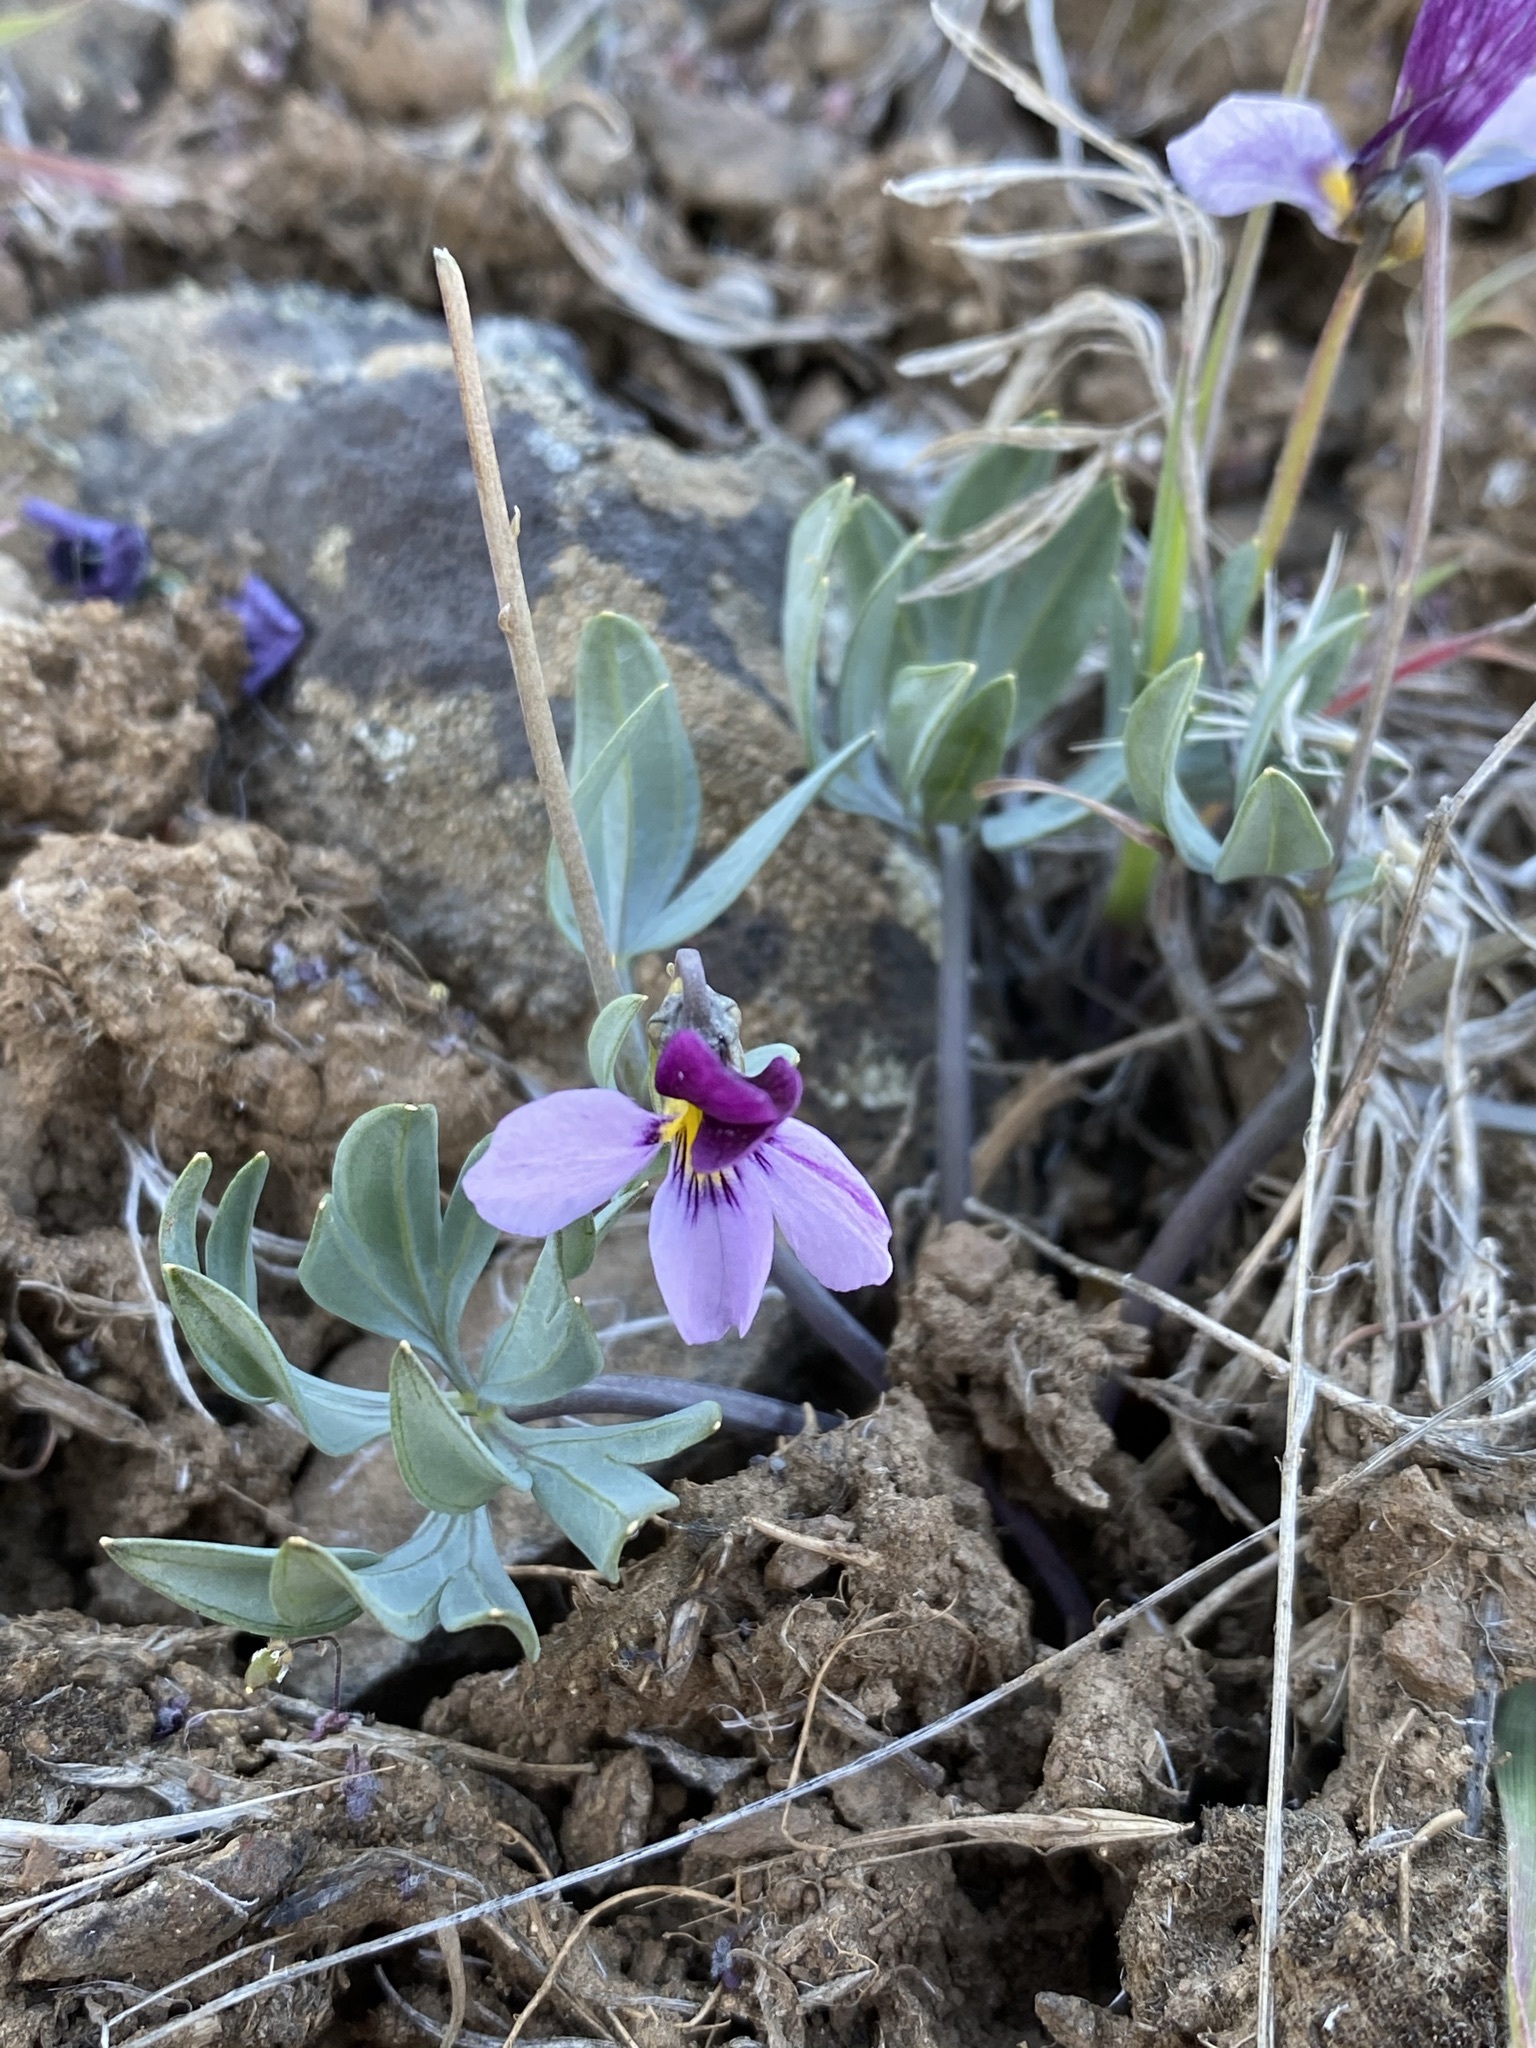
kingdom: Plantae
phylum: Tracheophyta
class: Magnoliopsida
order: Malpighiales
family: Violaceae
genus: Viola
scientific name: Viola trinervata
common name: Sagebrush violet
